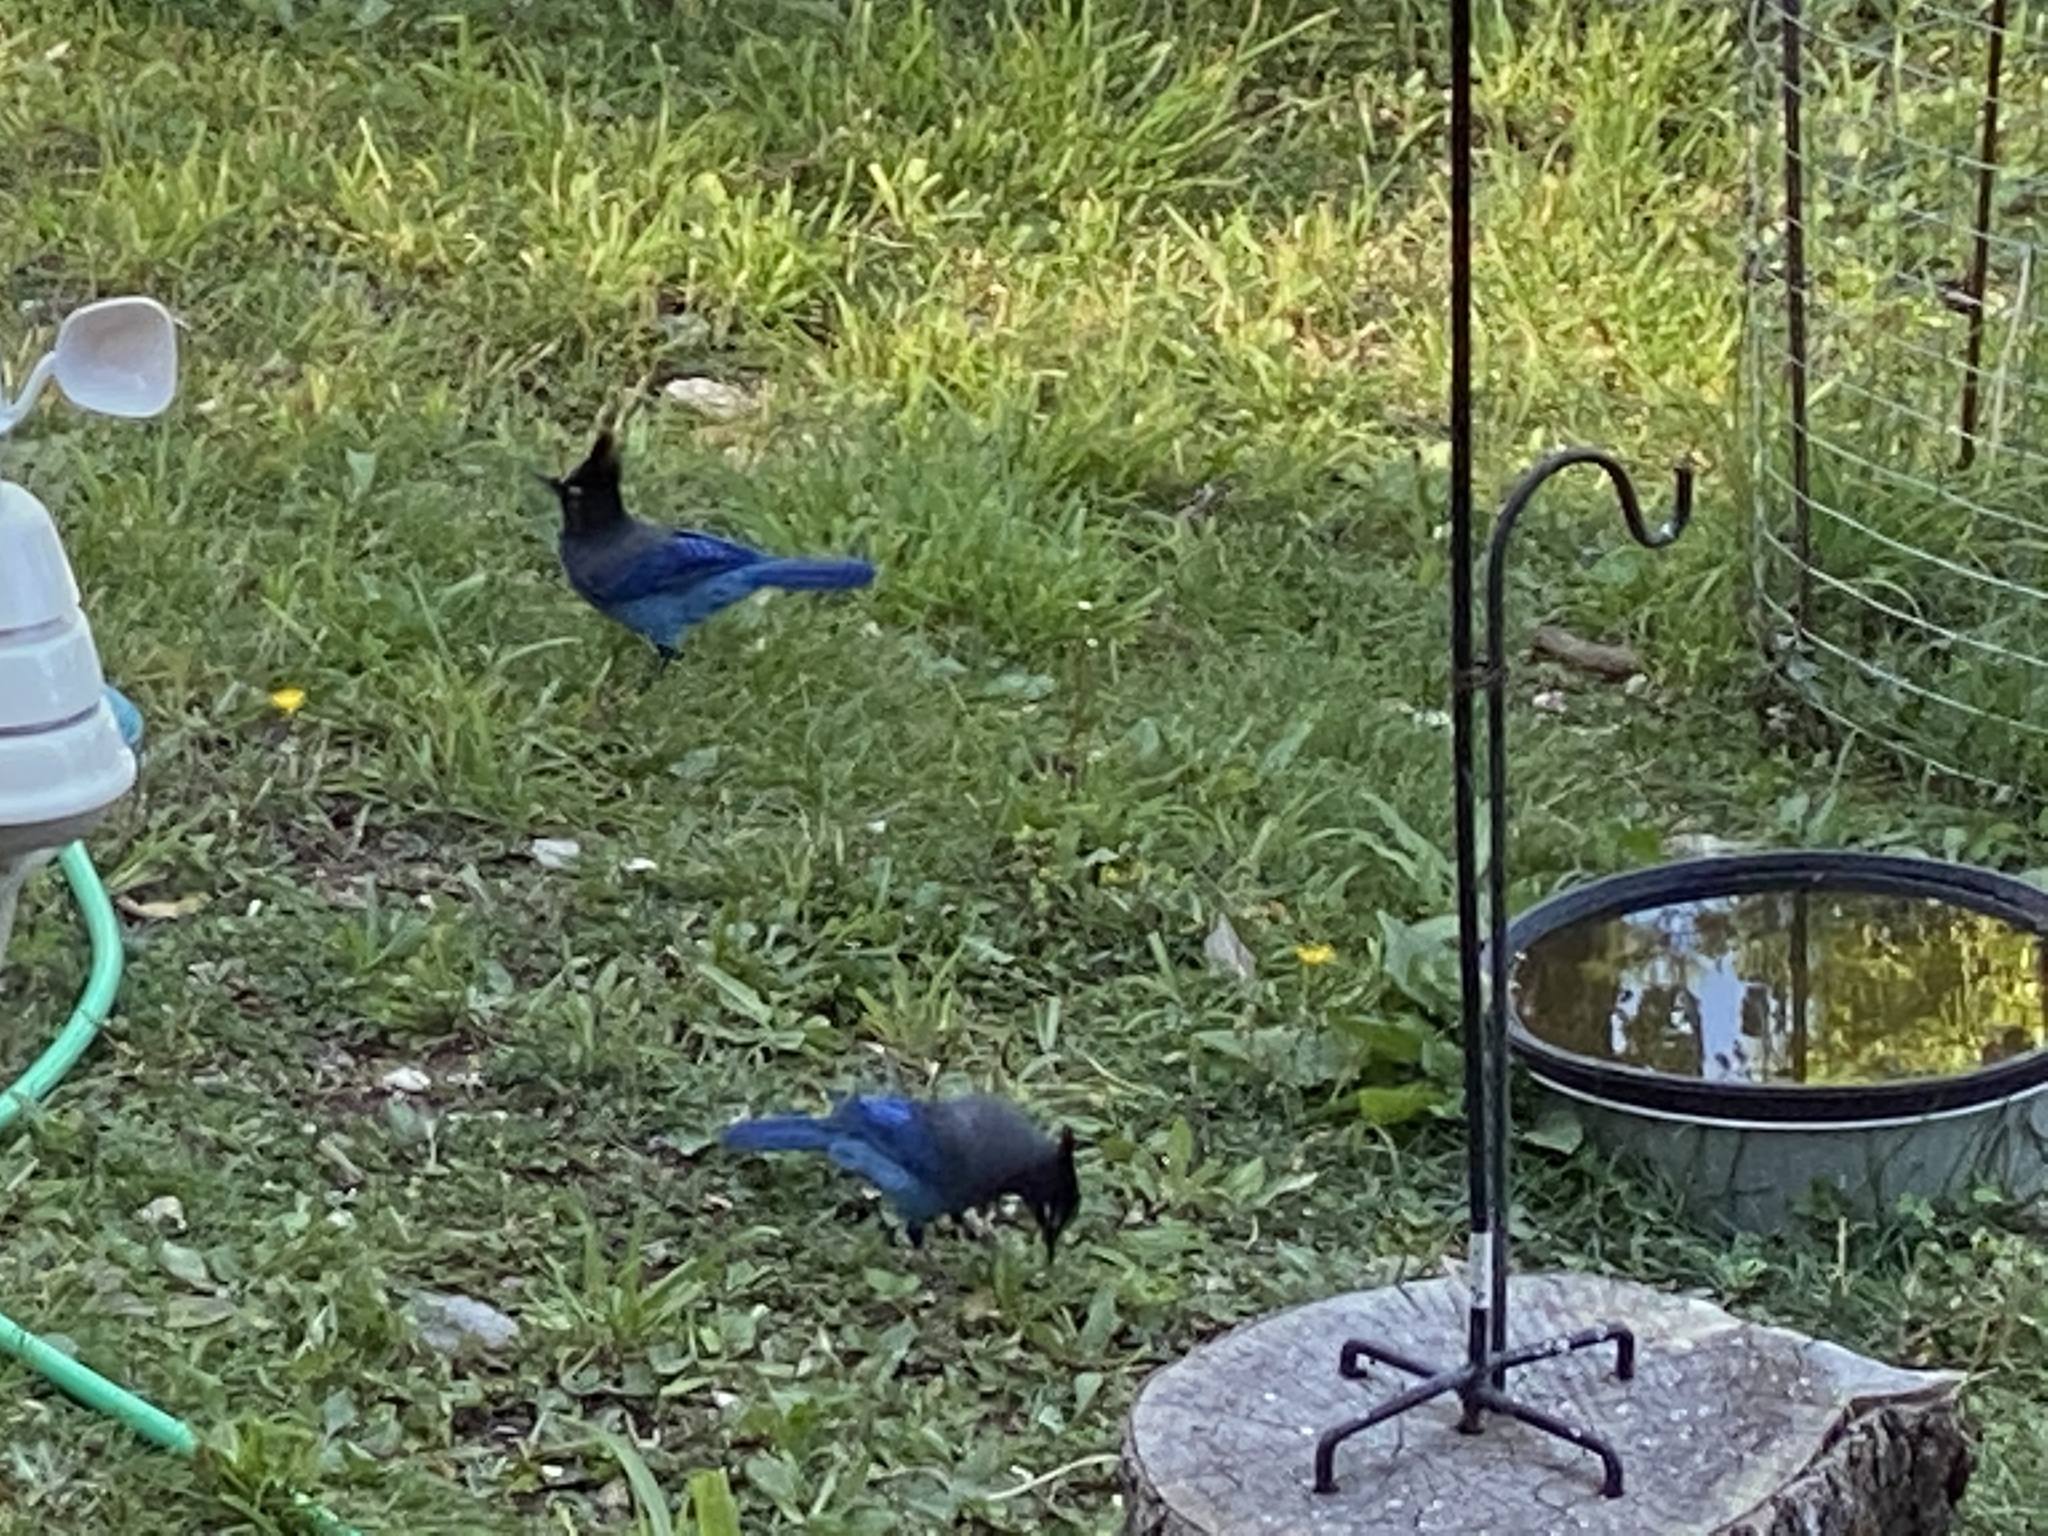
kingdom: Animalia
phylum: Chordata
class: Aves
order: Passeriformes
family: Corvidae
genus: Cyanocitta
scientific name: Cyanocitta stelleri
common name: Steller's jay
